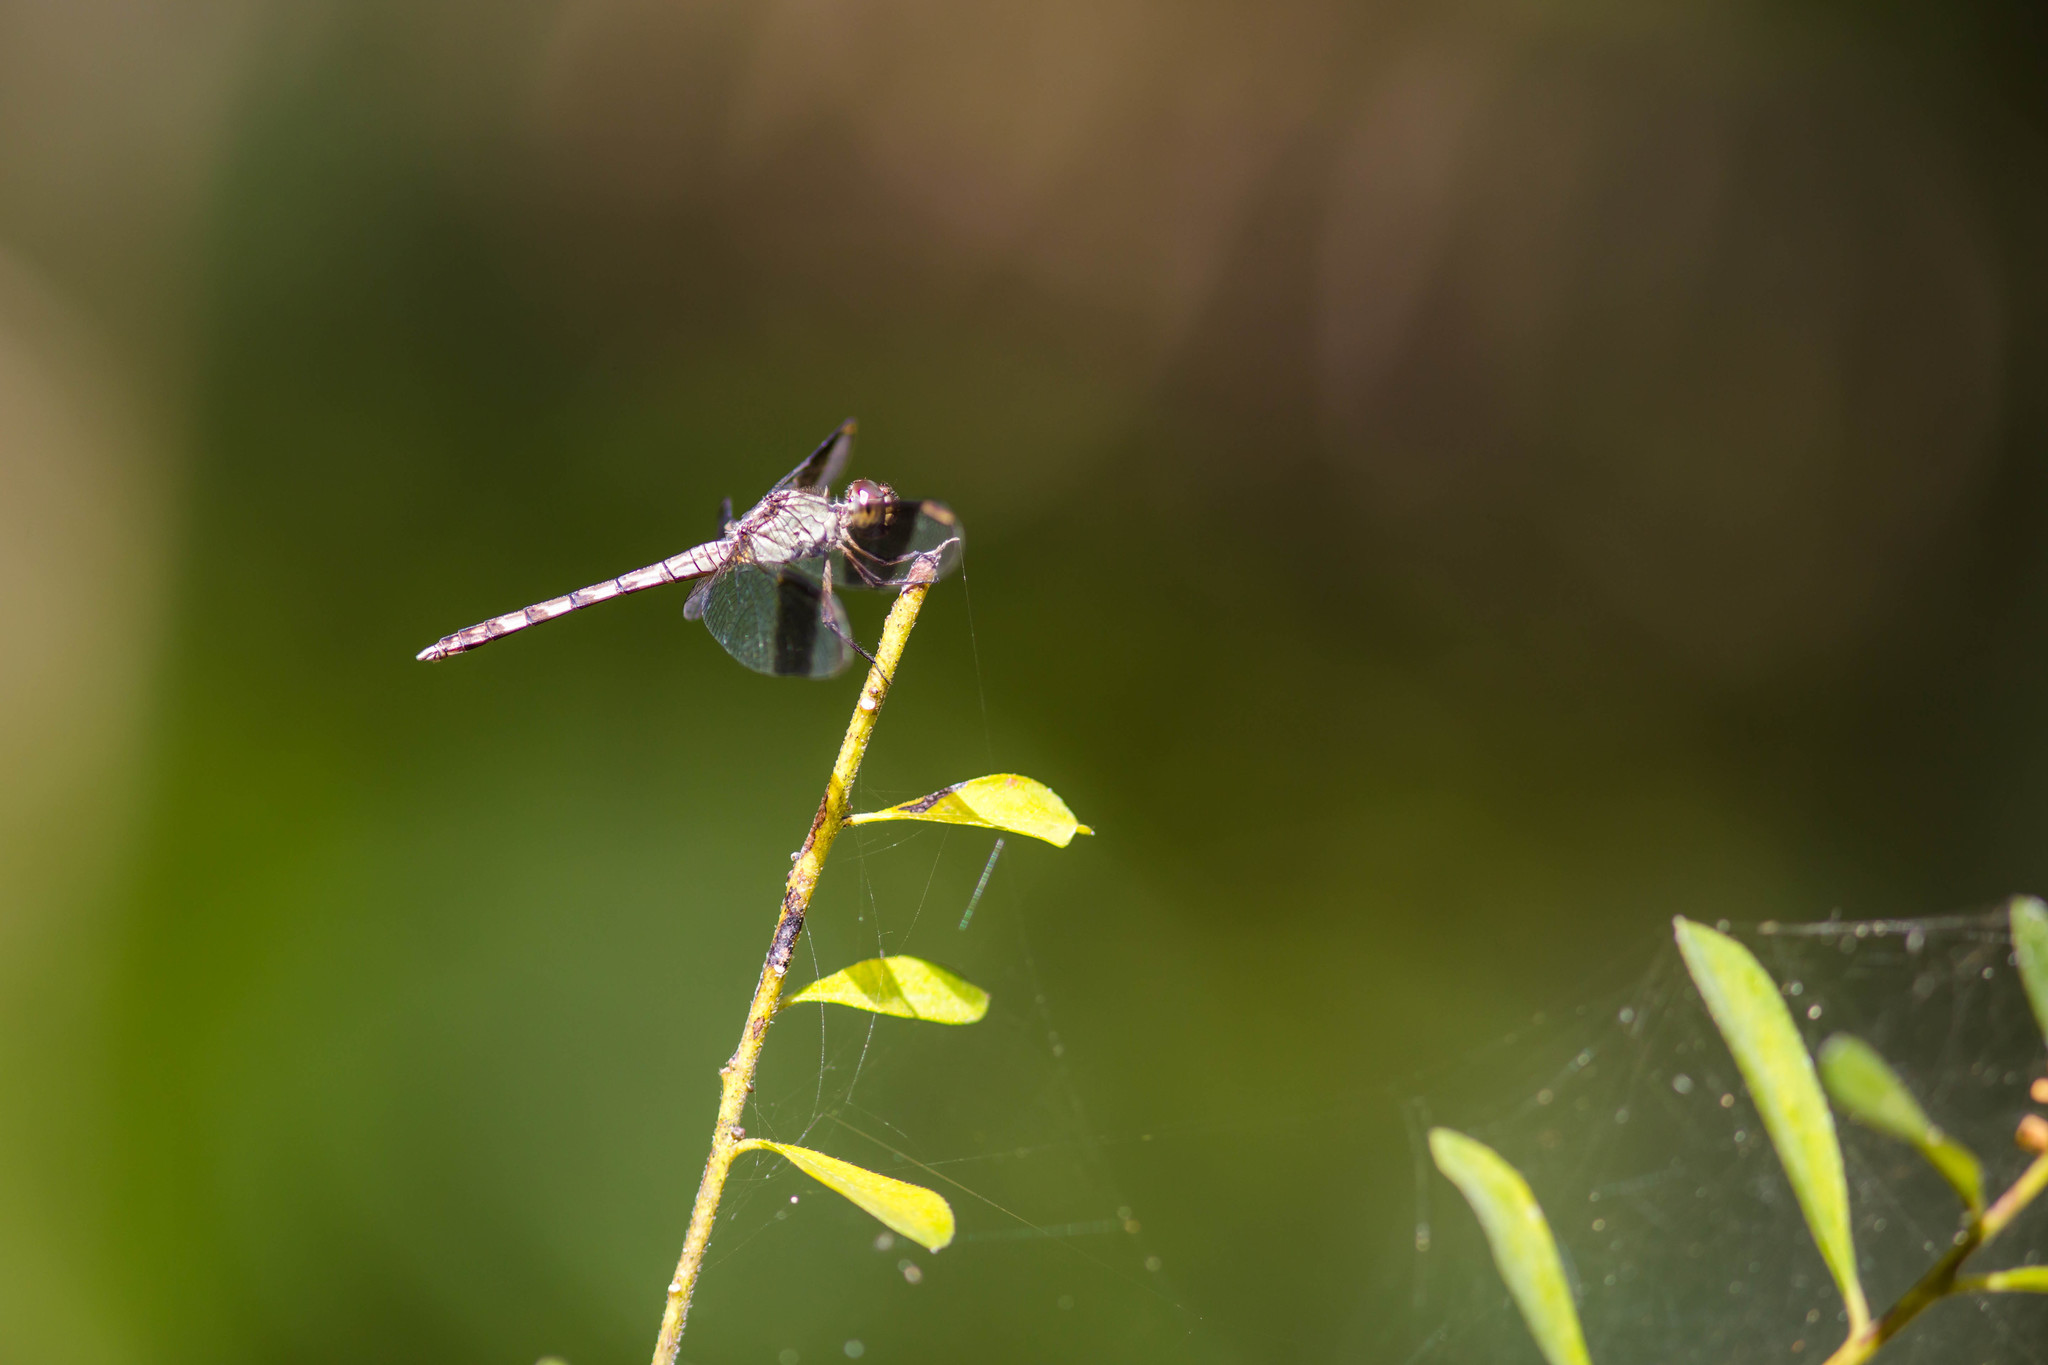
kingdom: Animalia
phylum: Arthropoda
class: Insecta
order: Odonata
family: Libellulidae
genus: Erythrodiplax
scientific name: Erythrodiplax umbrata
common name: Band-winged dragonlet
